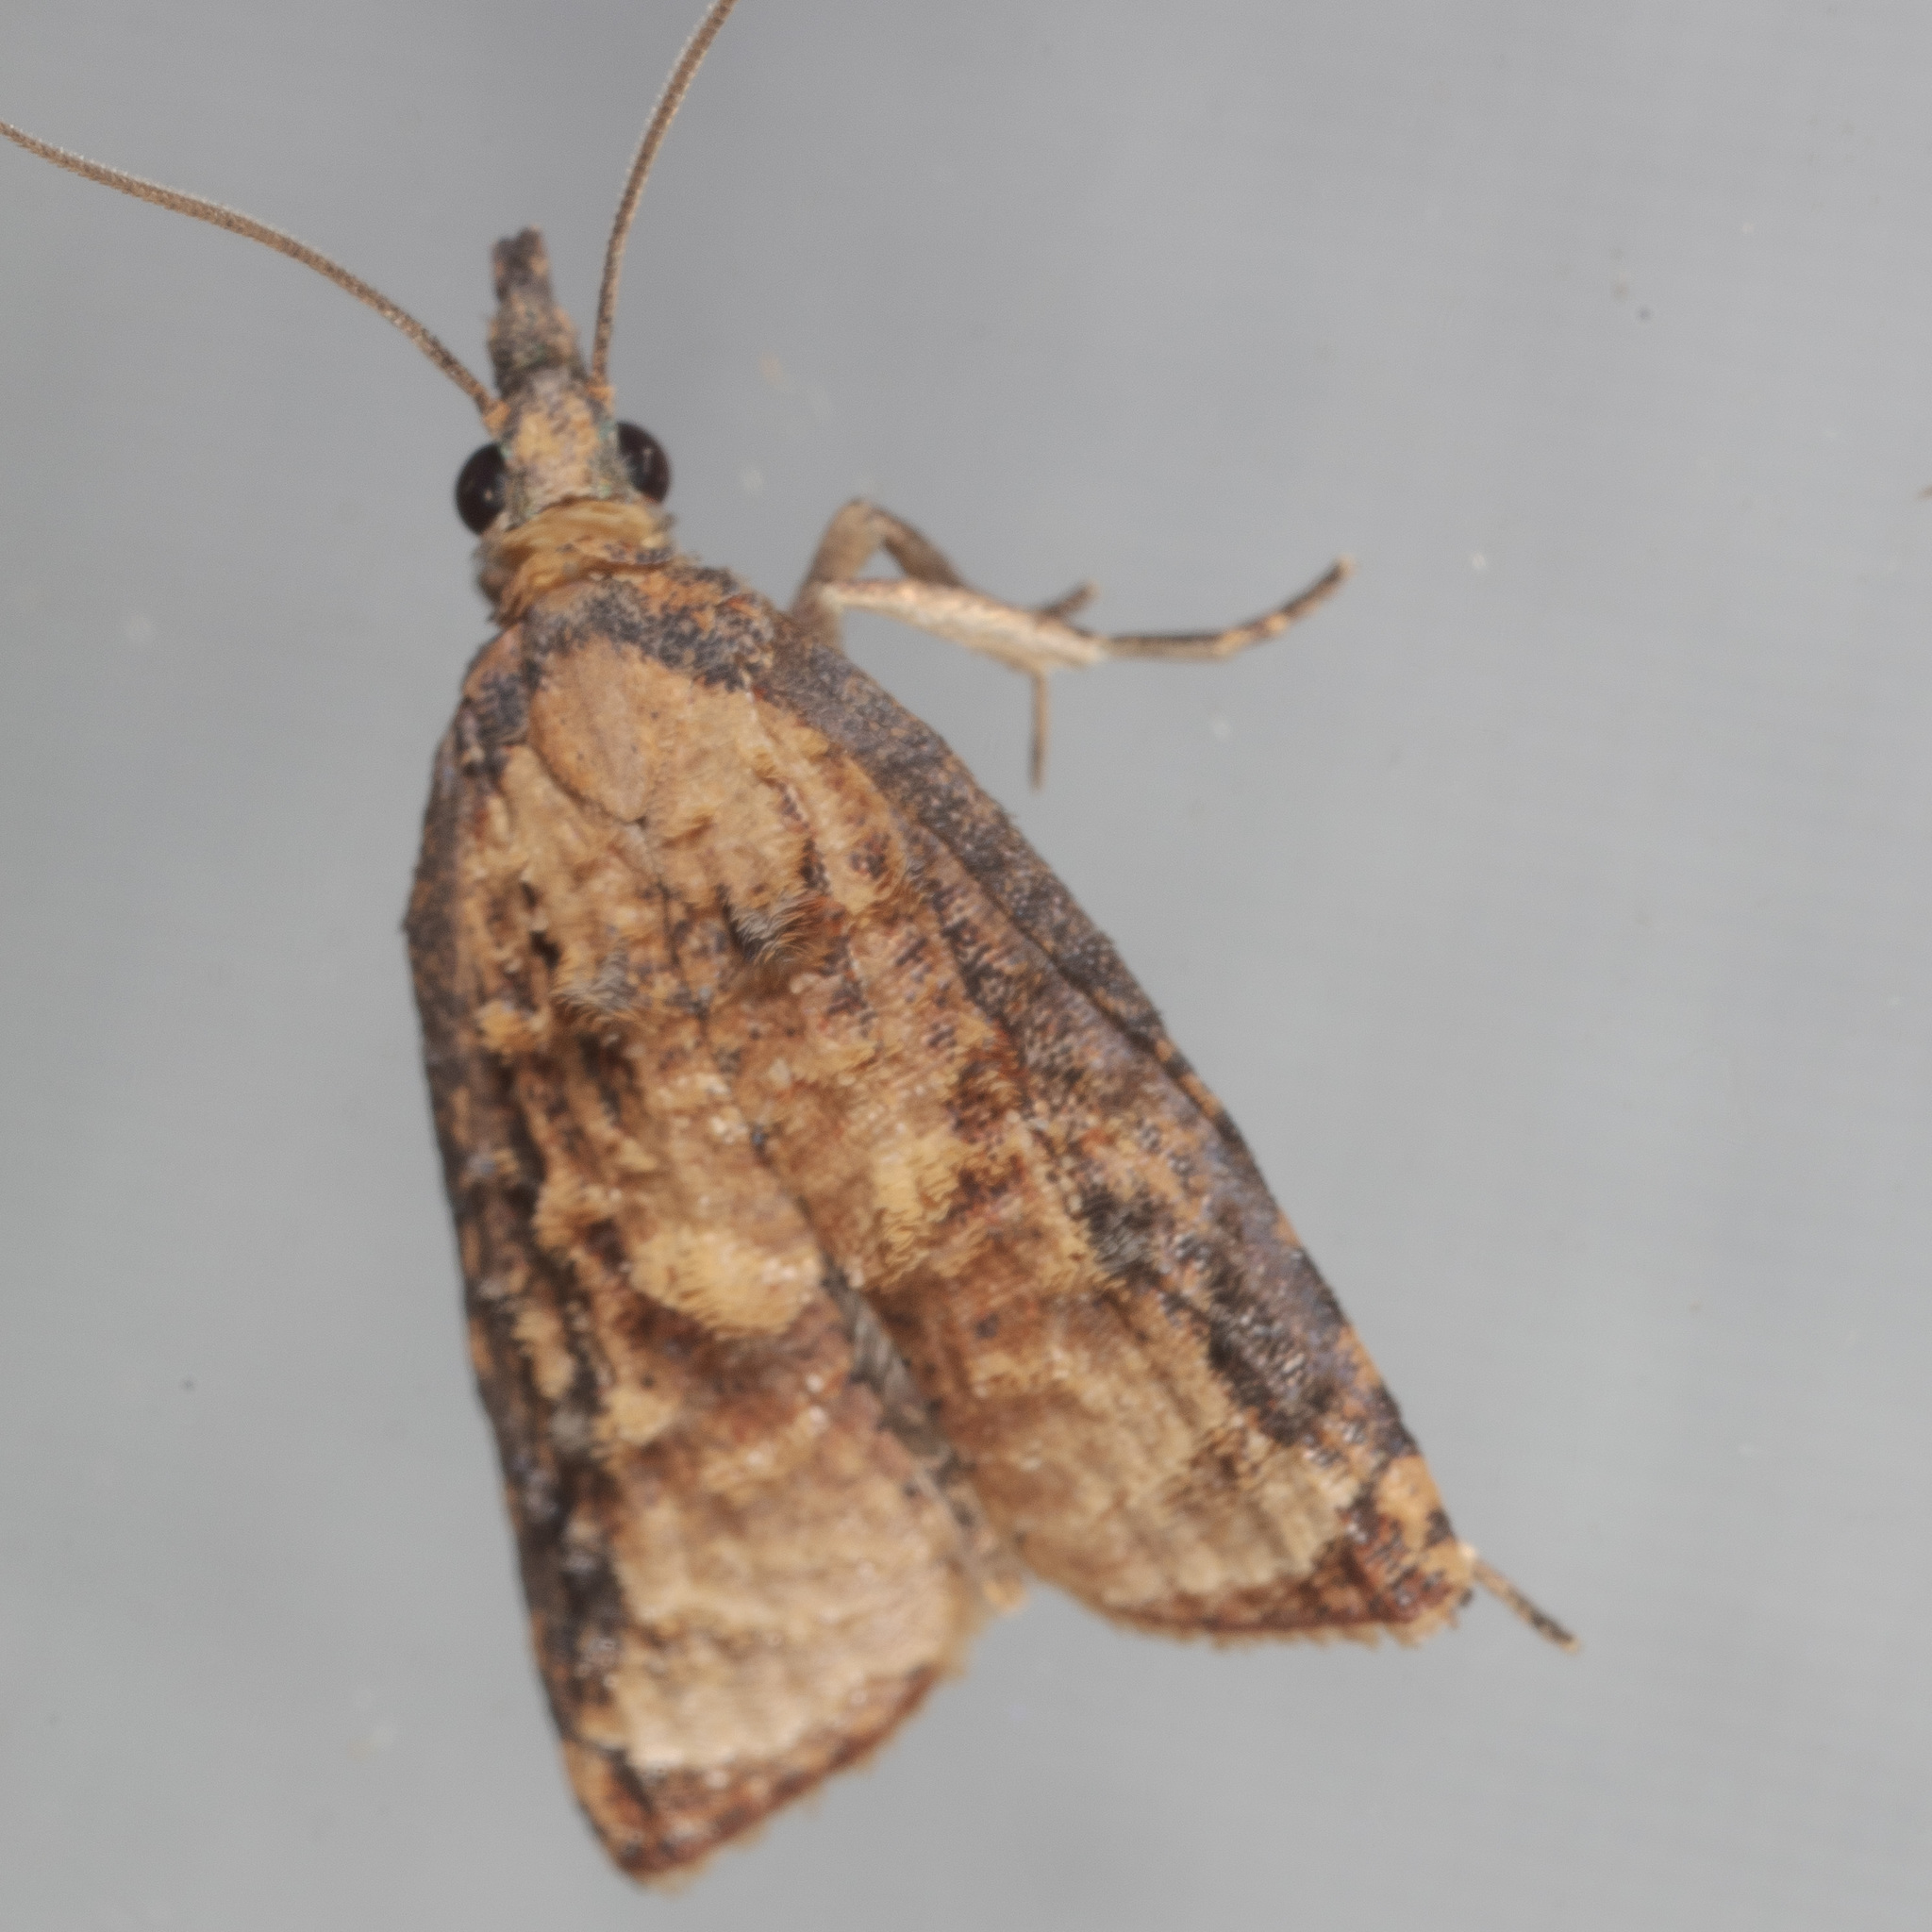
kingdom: Animalia
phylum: Arthropoda
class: Insecta
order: Lepidoptera
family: Tortricidae
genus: Platynota
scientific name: Platynota rostrana
